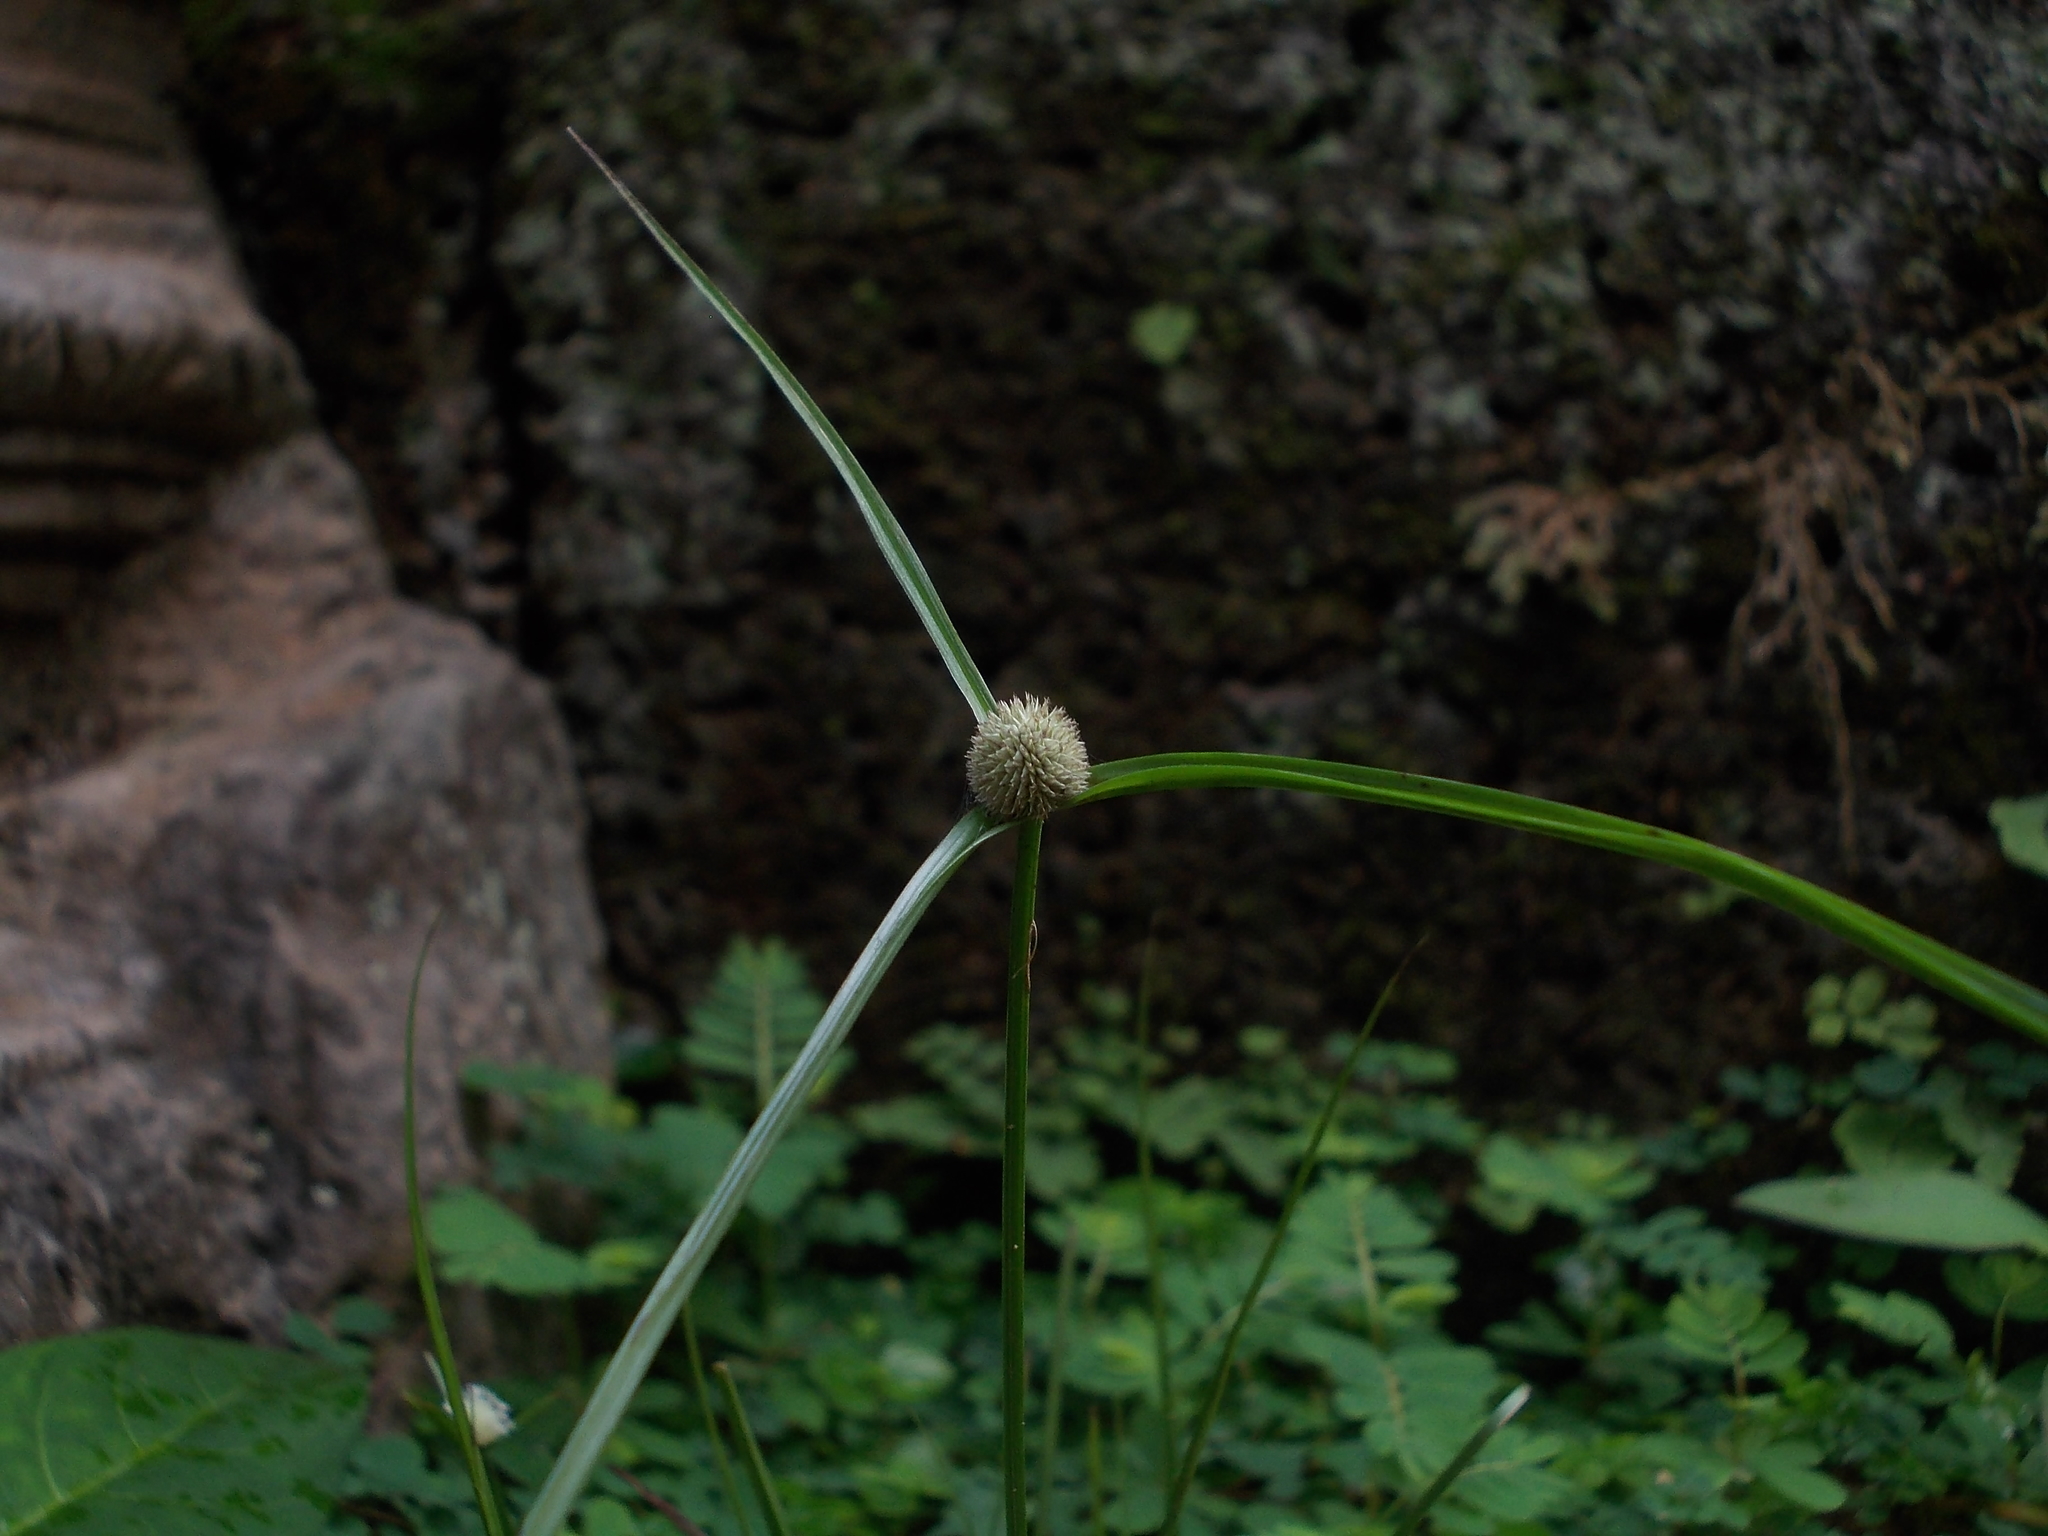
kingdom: Plantae
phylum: Tracheophyta
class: Liliopsida
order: Poales
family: Cyperaceae
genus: Cyperus
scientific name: Cyperus mindorensis
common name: Flatsedge
